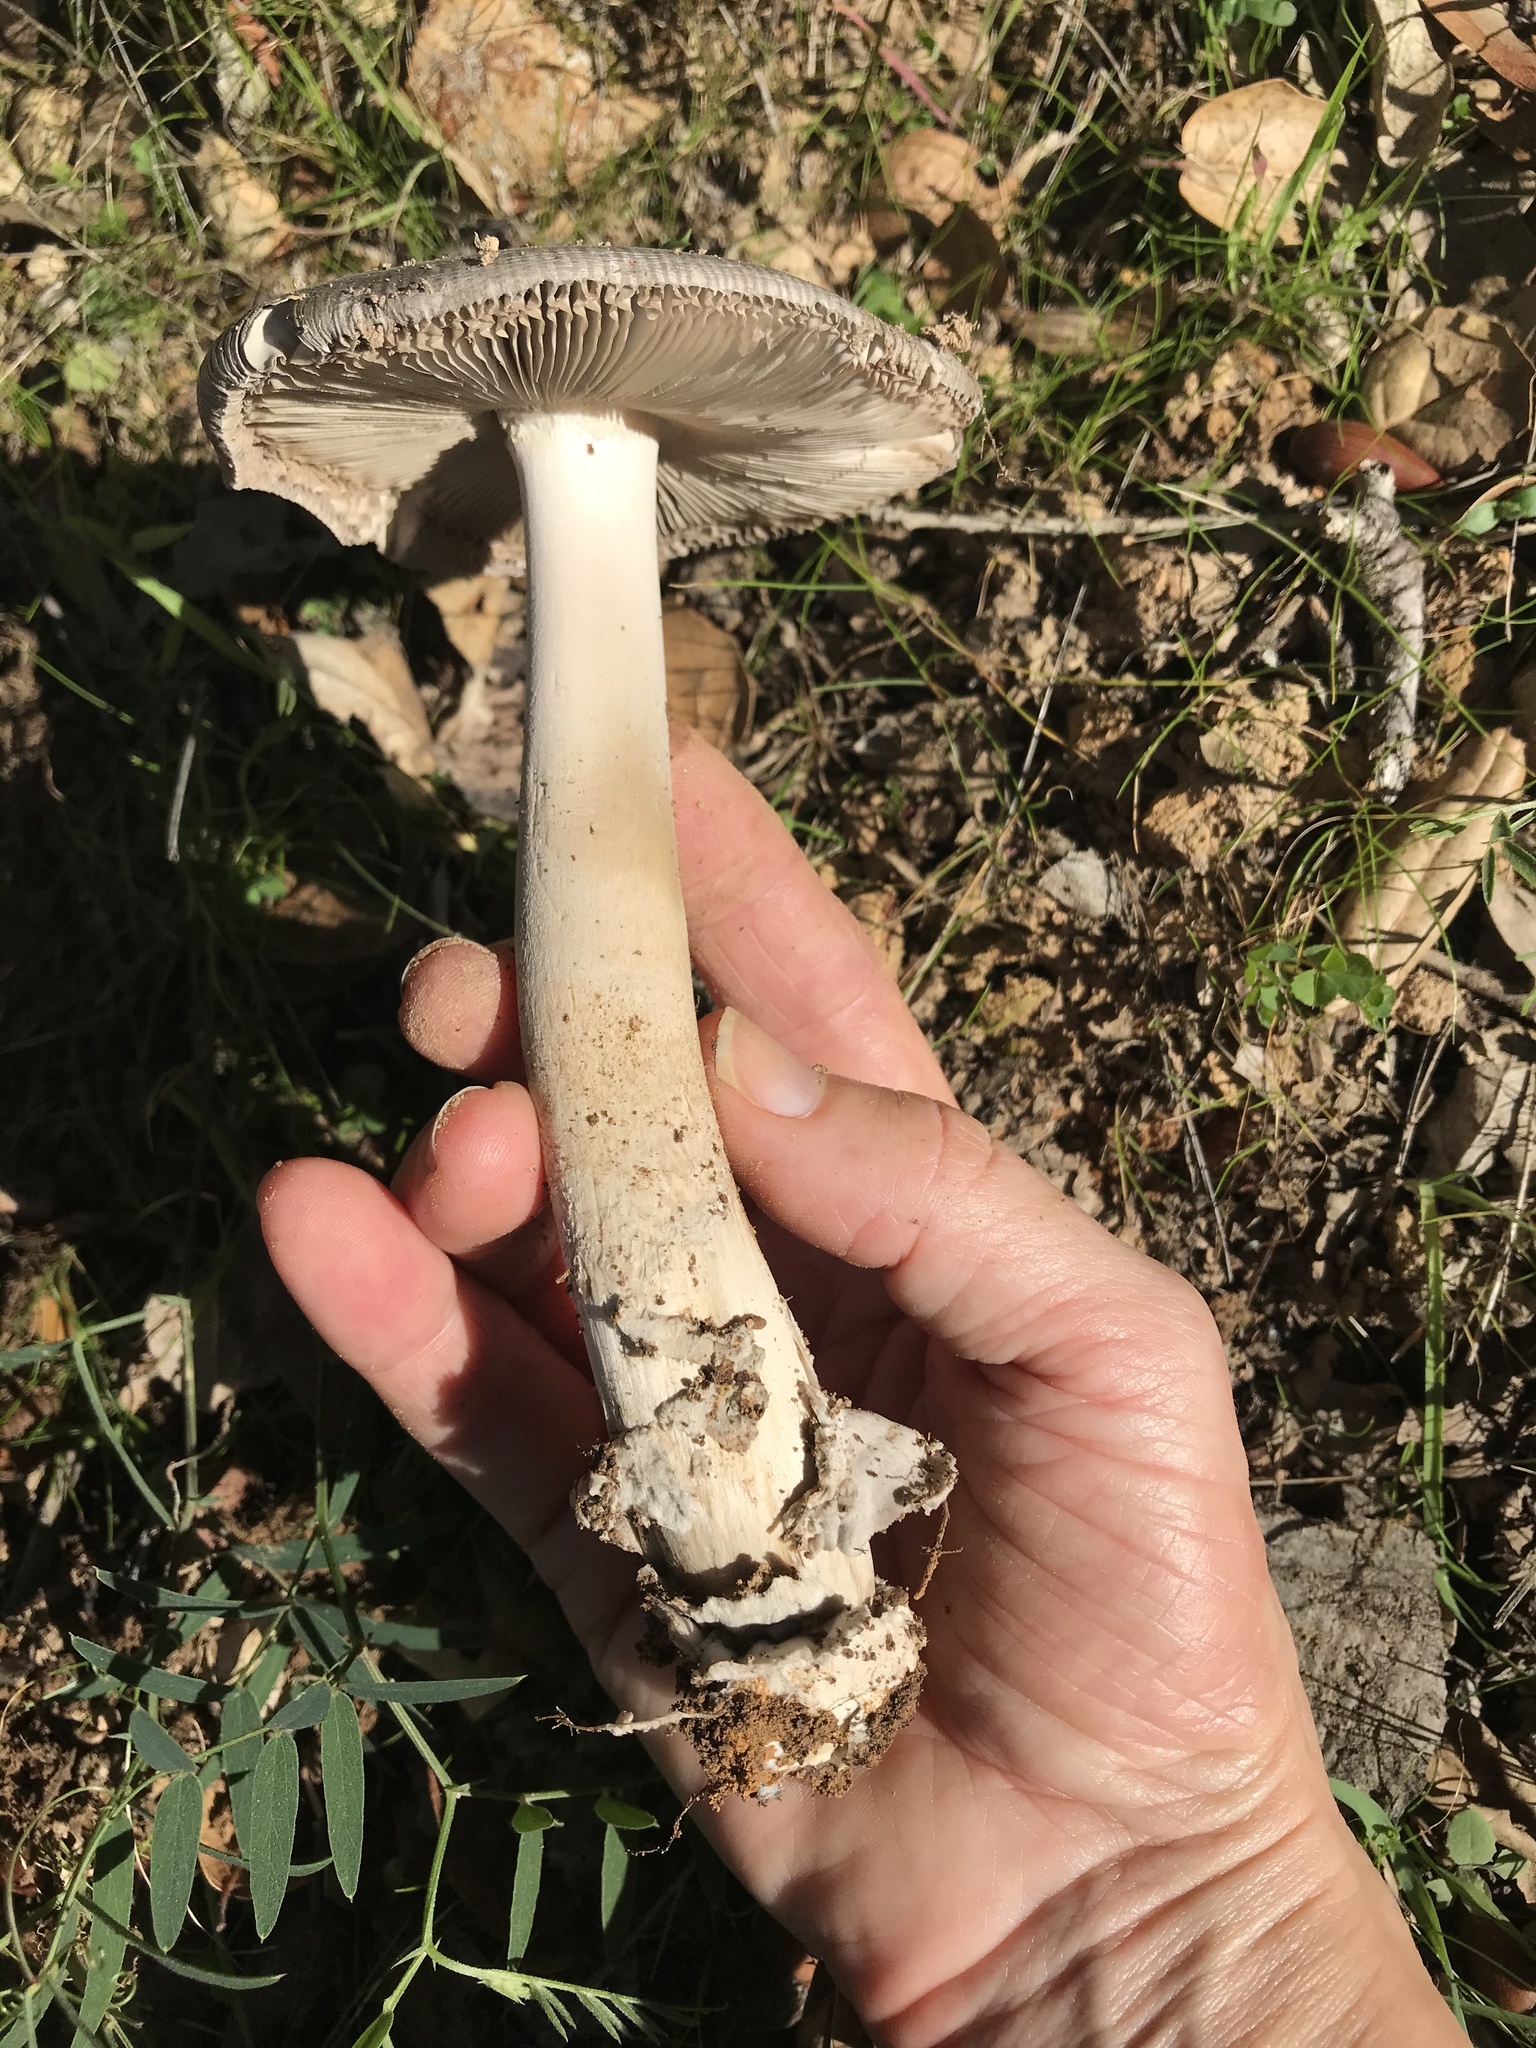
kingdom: Fungi
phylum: Basidiomycota
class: Agaricomycetes
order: Agaricales
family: Amanitaceae
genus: Amanita
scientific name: Amanita constricta
